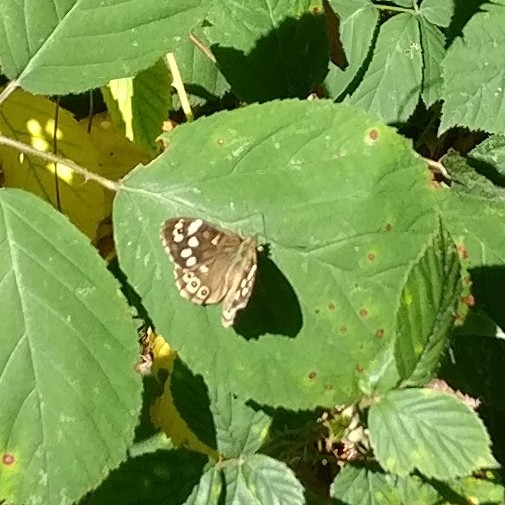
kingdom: Animalia
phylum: Arthropoda
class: Insecta
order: Lepidoptera
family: Nymphalidae
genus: Pararge
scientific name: Pararge aegeria
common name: Speckled wood
